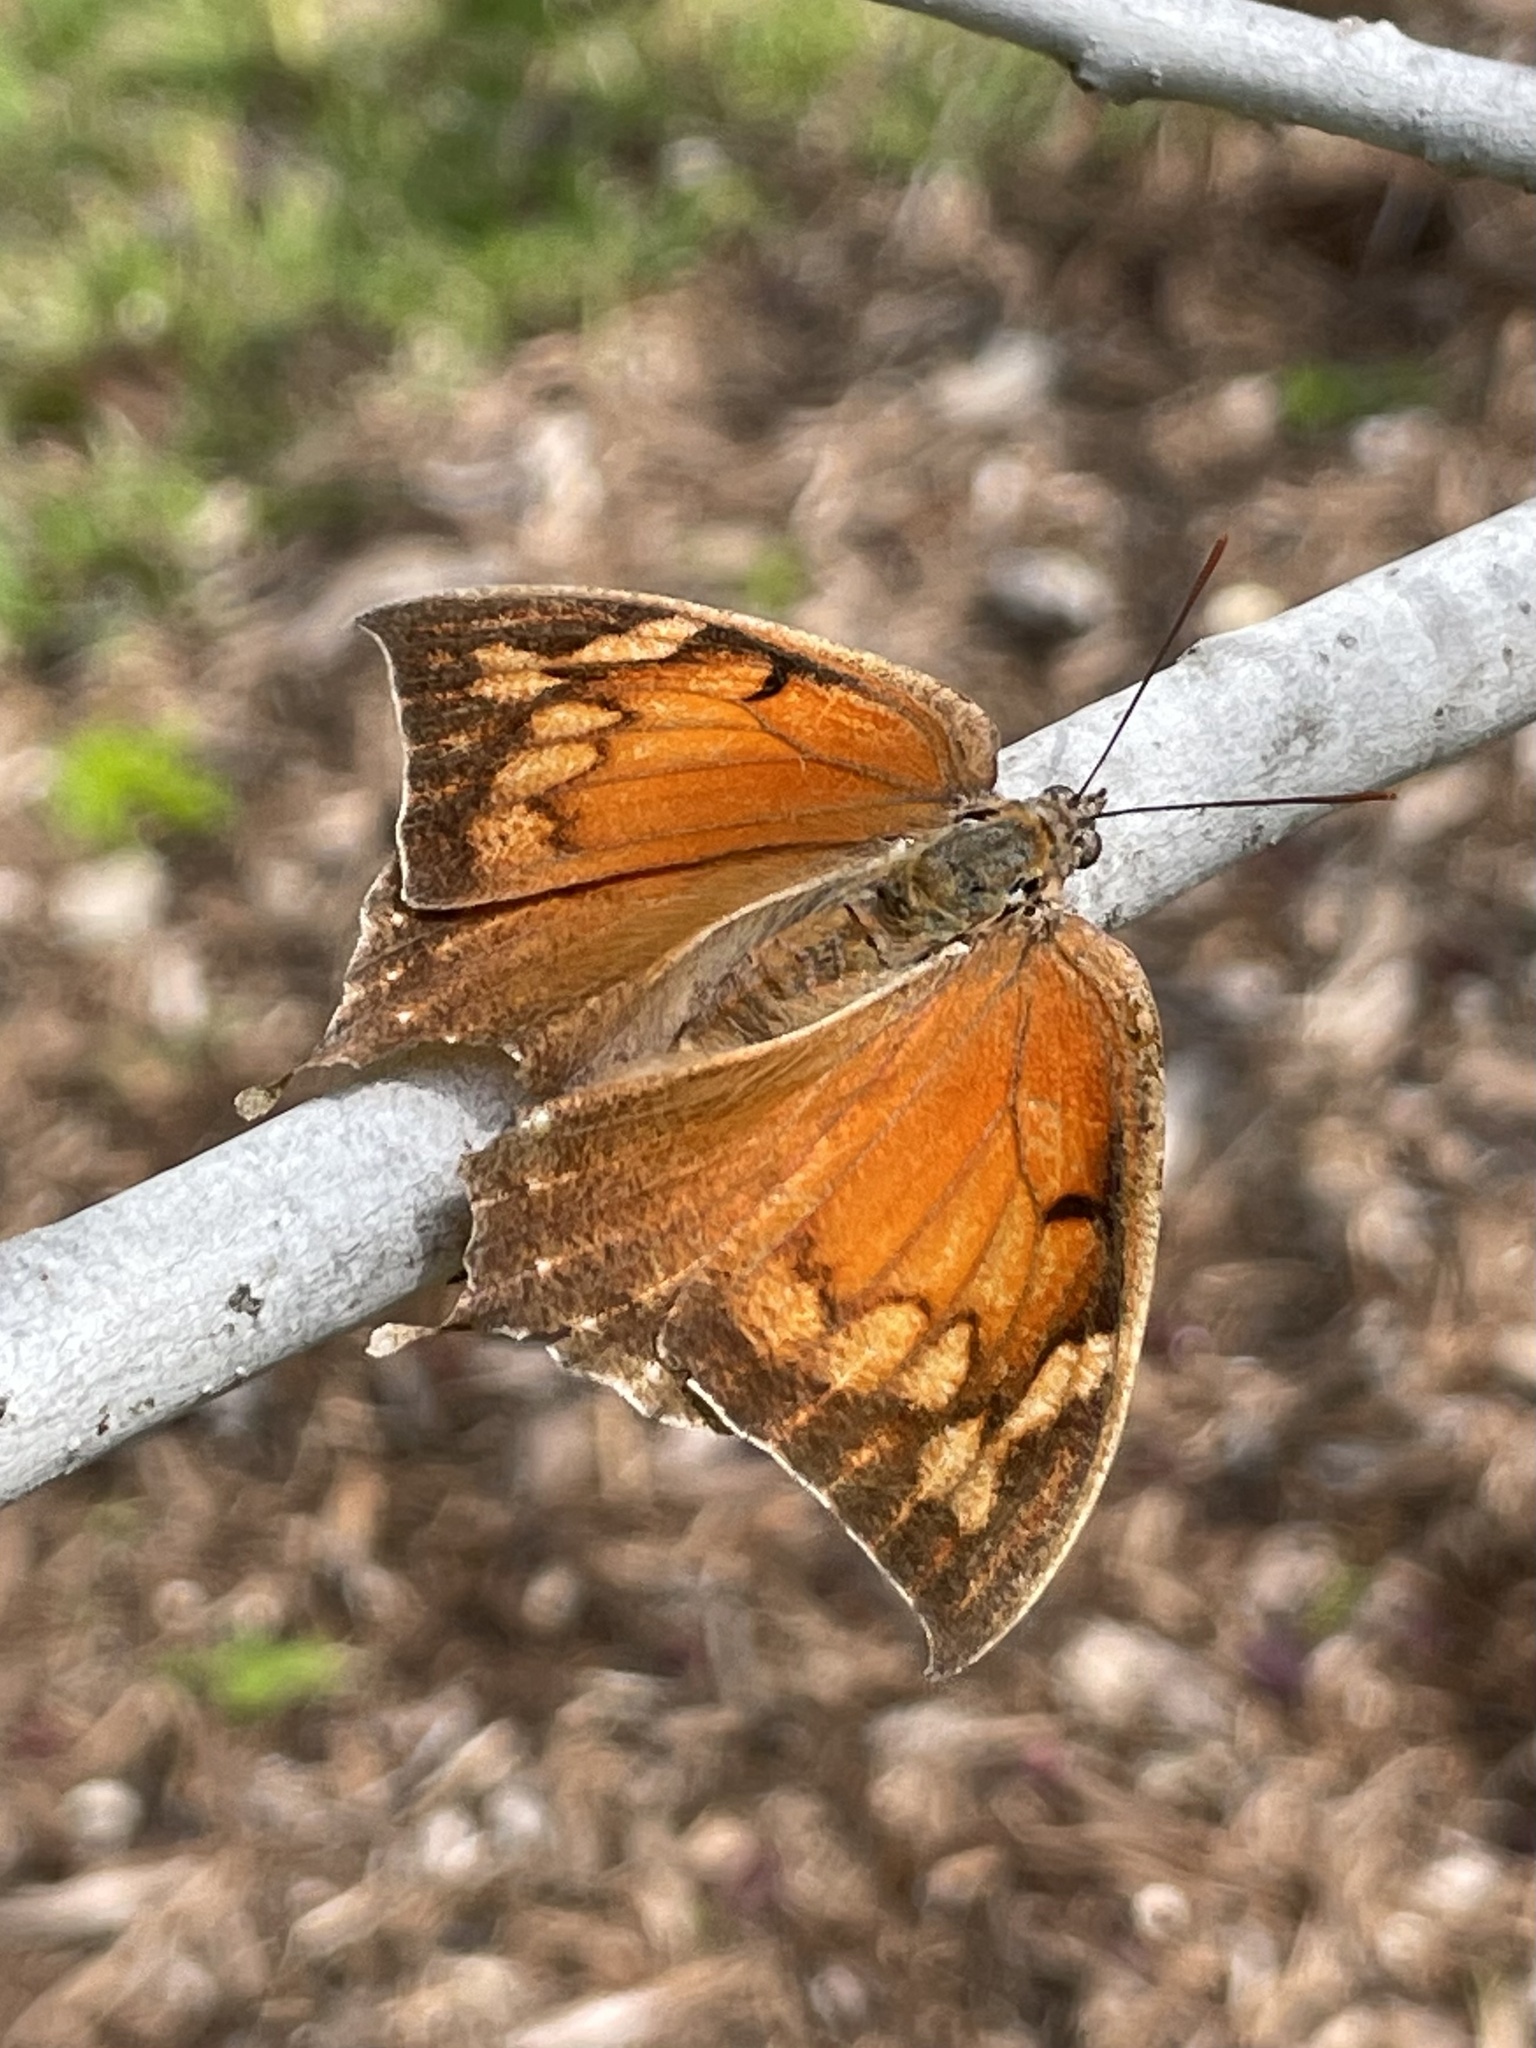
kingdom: Animalia
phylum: Arthropoda
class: Insecta
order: Lepidoptera
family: Nymphalidae
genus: Anaea
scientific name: Anaea andria
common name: Goatweed leafwing
